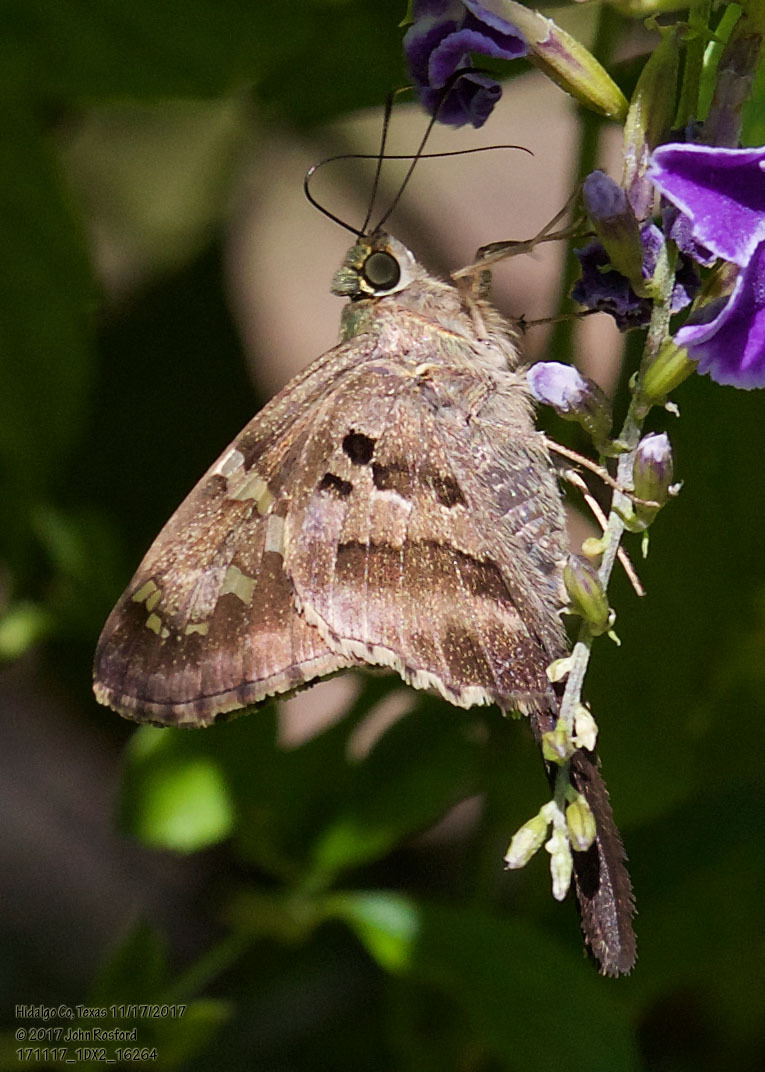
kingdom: Animalia
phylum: Arthropoda
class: Insecta
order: Lepidoptera
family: Hesperiidae
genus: Urbanus
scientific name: Urbanus proteus
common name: Long-tailed skipper
